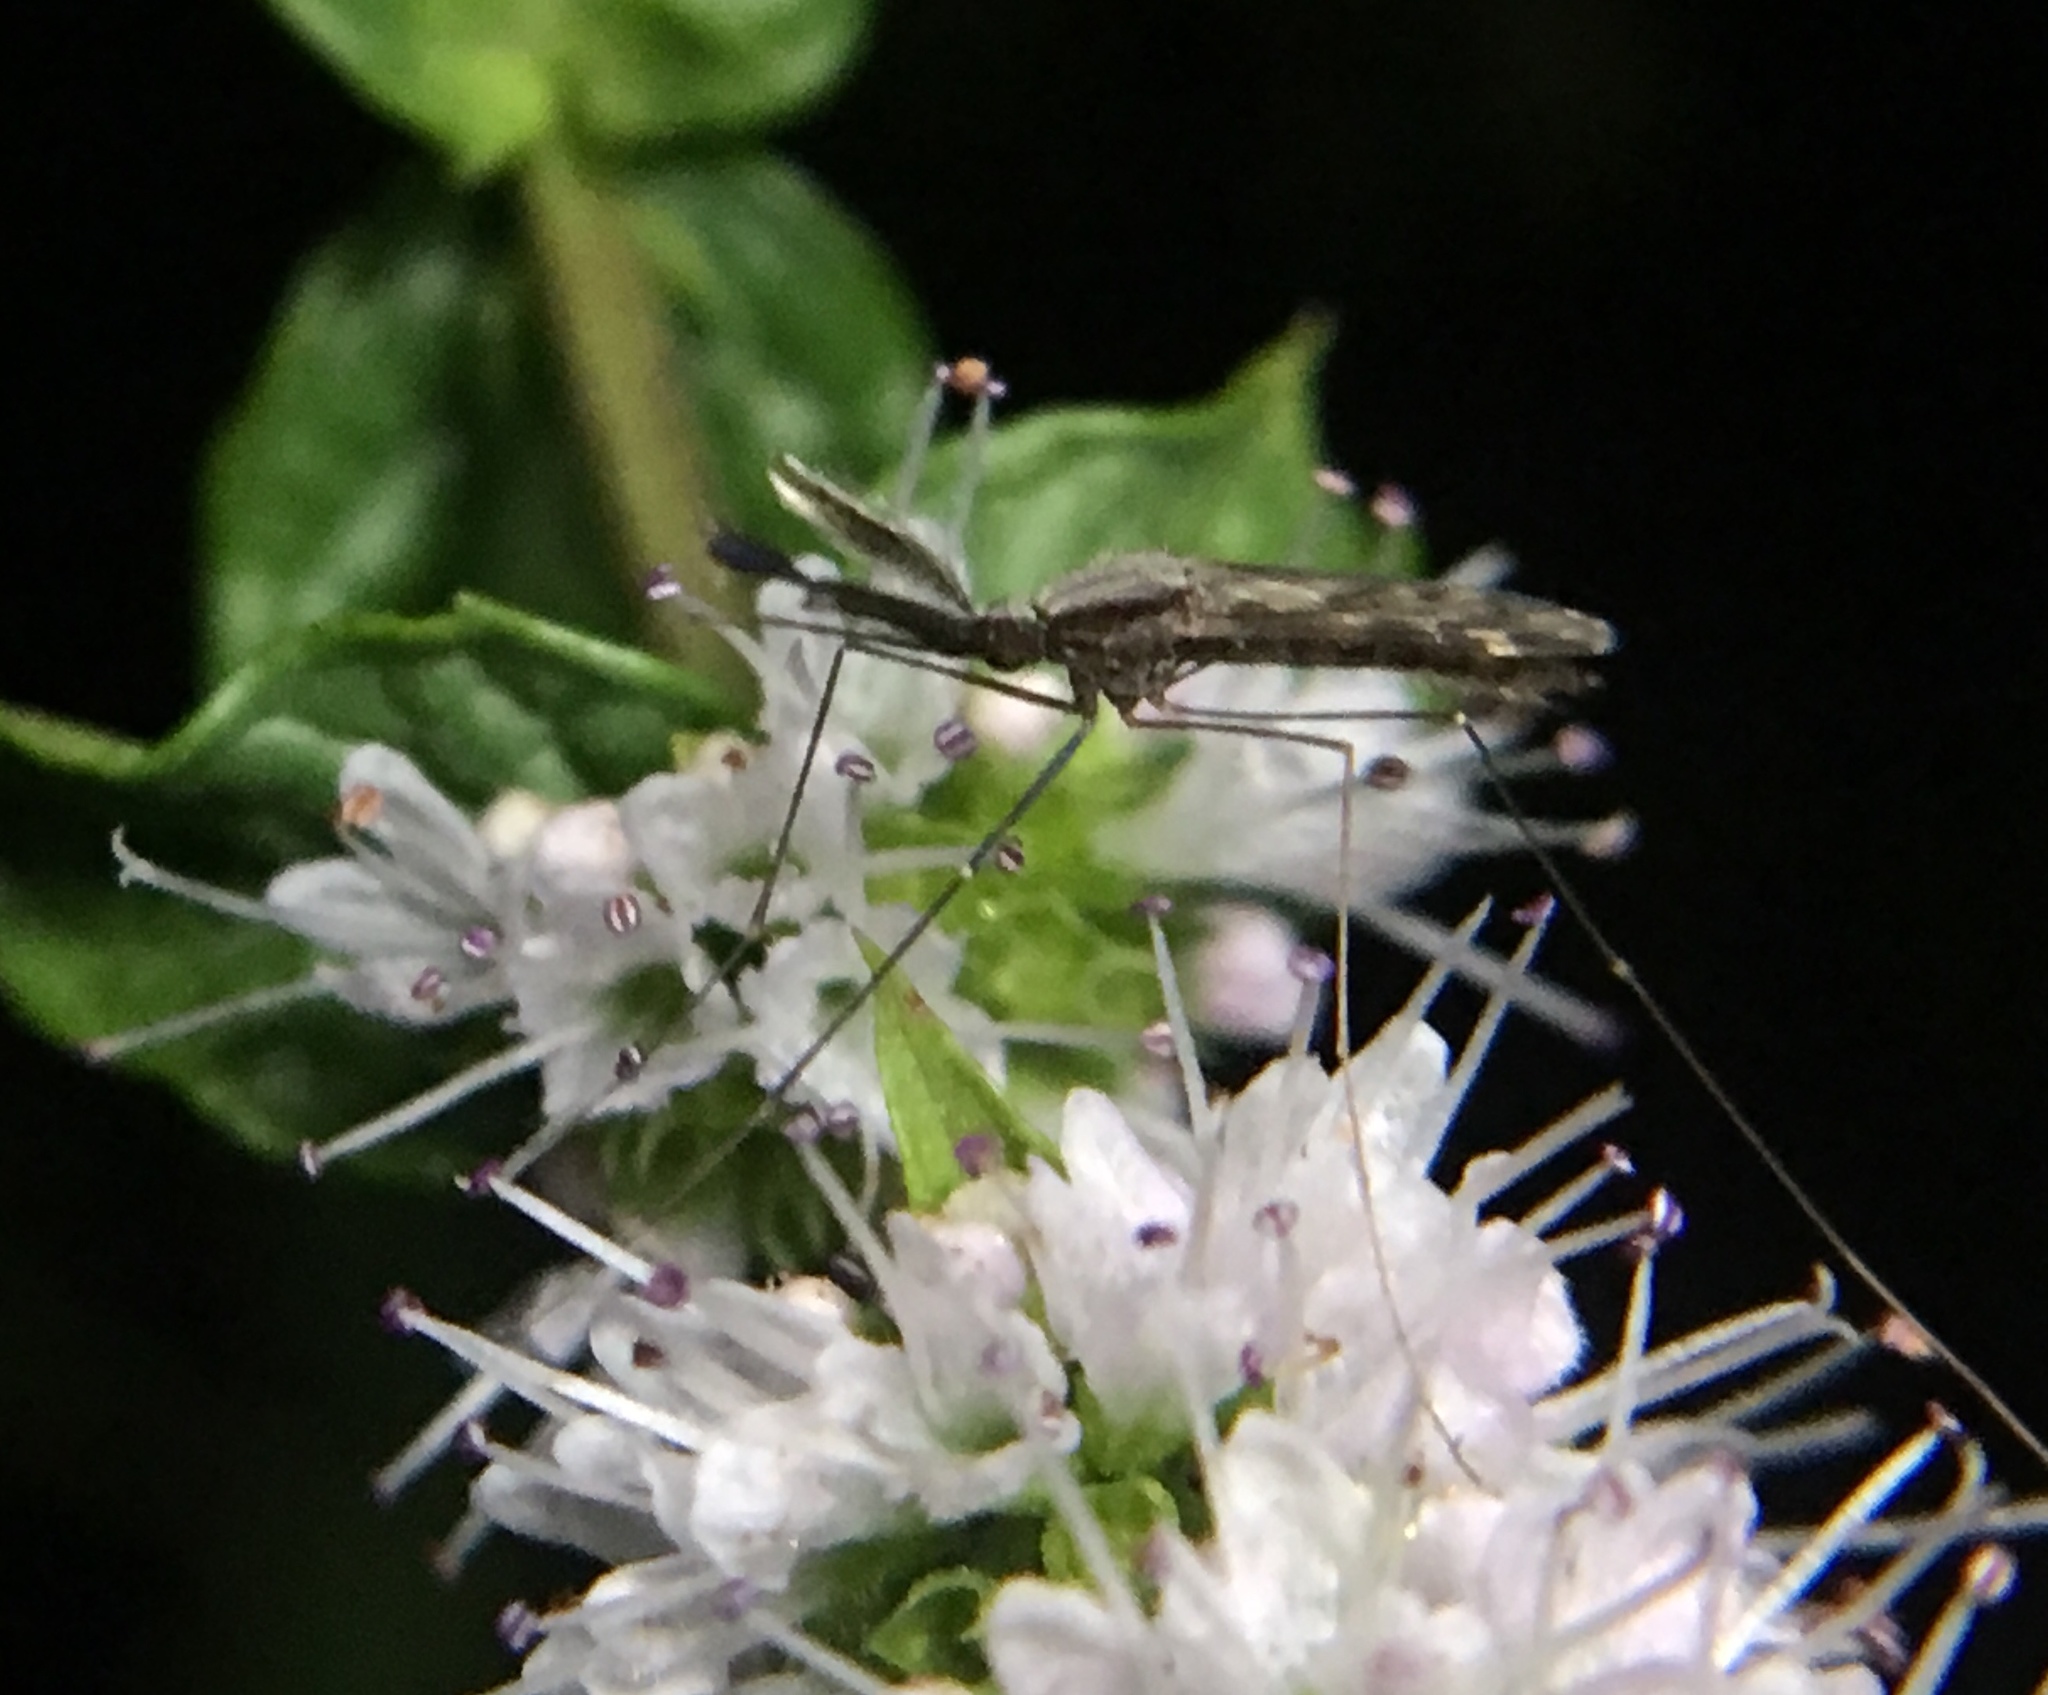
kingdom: Animalia
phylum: Arthropoda
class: Insecta
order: Diptera
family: Culicidae
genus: Anopheles
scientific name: Anopheles punctipennis
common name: Woodland malaria mosquito
